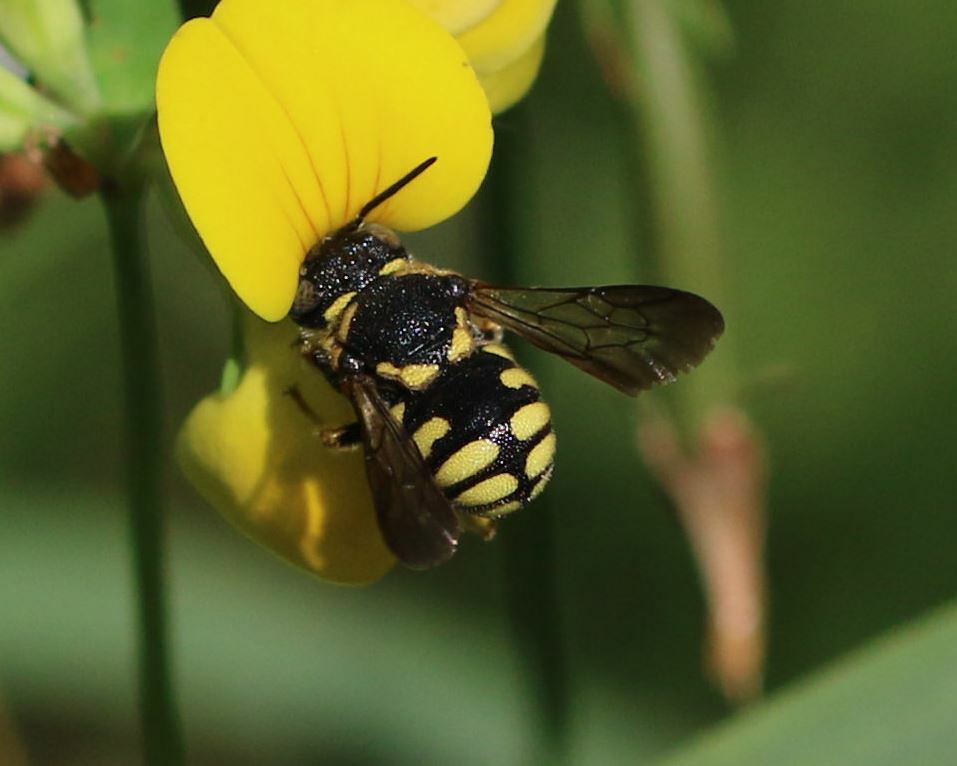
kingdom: Animalia
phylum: Arthropoda
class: Insecta
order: Hymenoptera
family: Megachilidae
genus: Anthidiellum
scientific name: Anthidiellum strigatum
